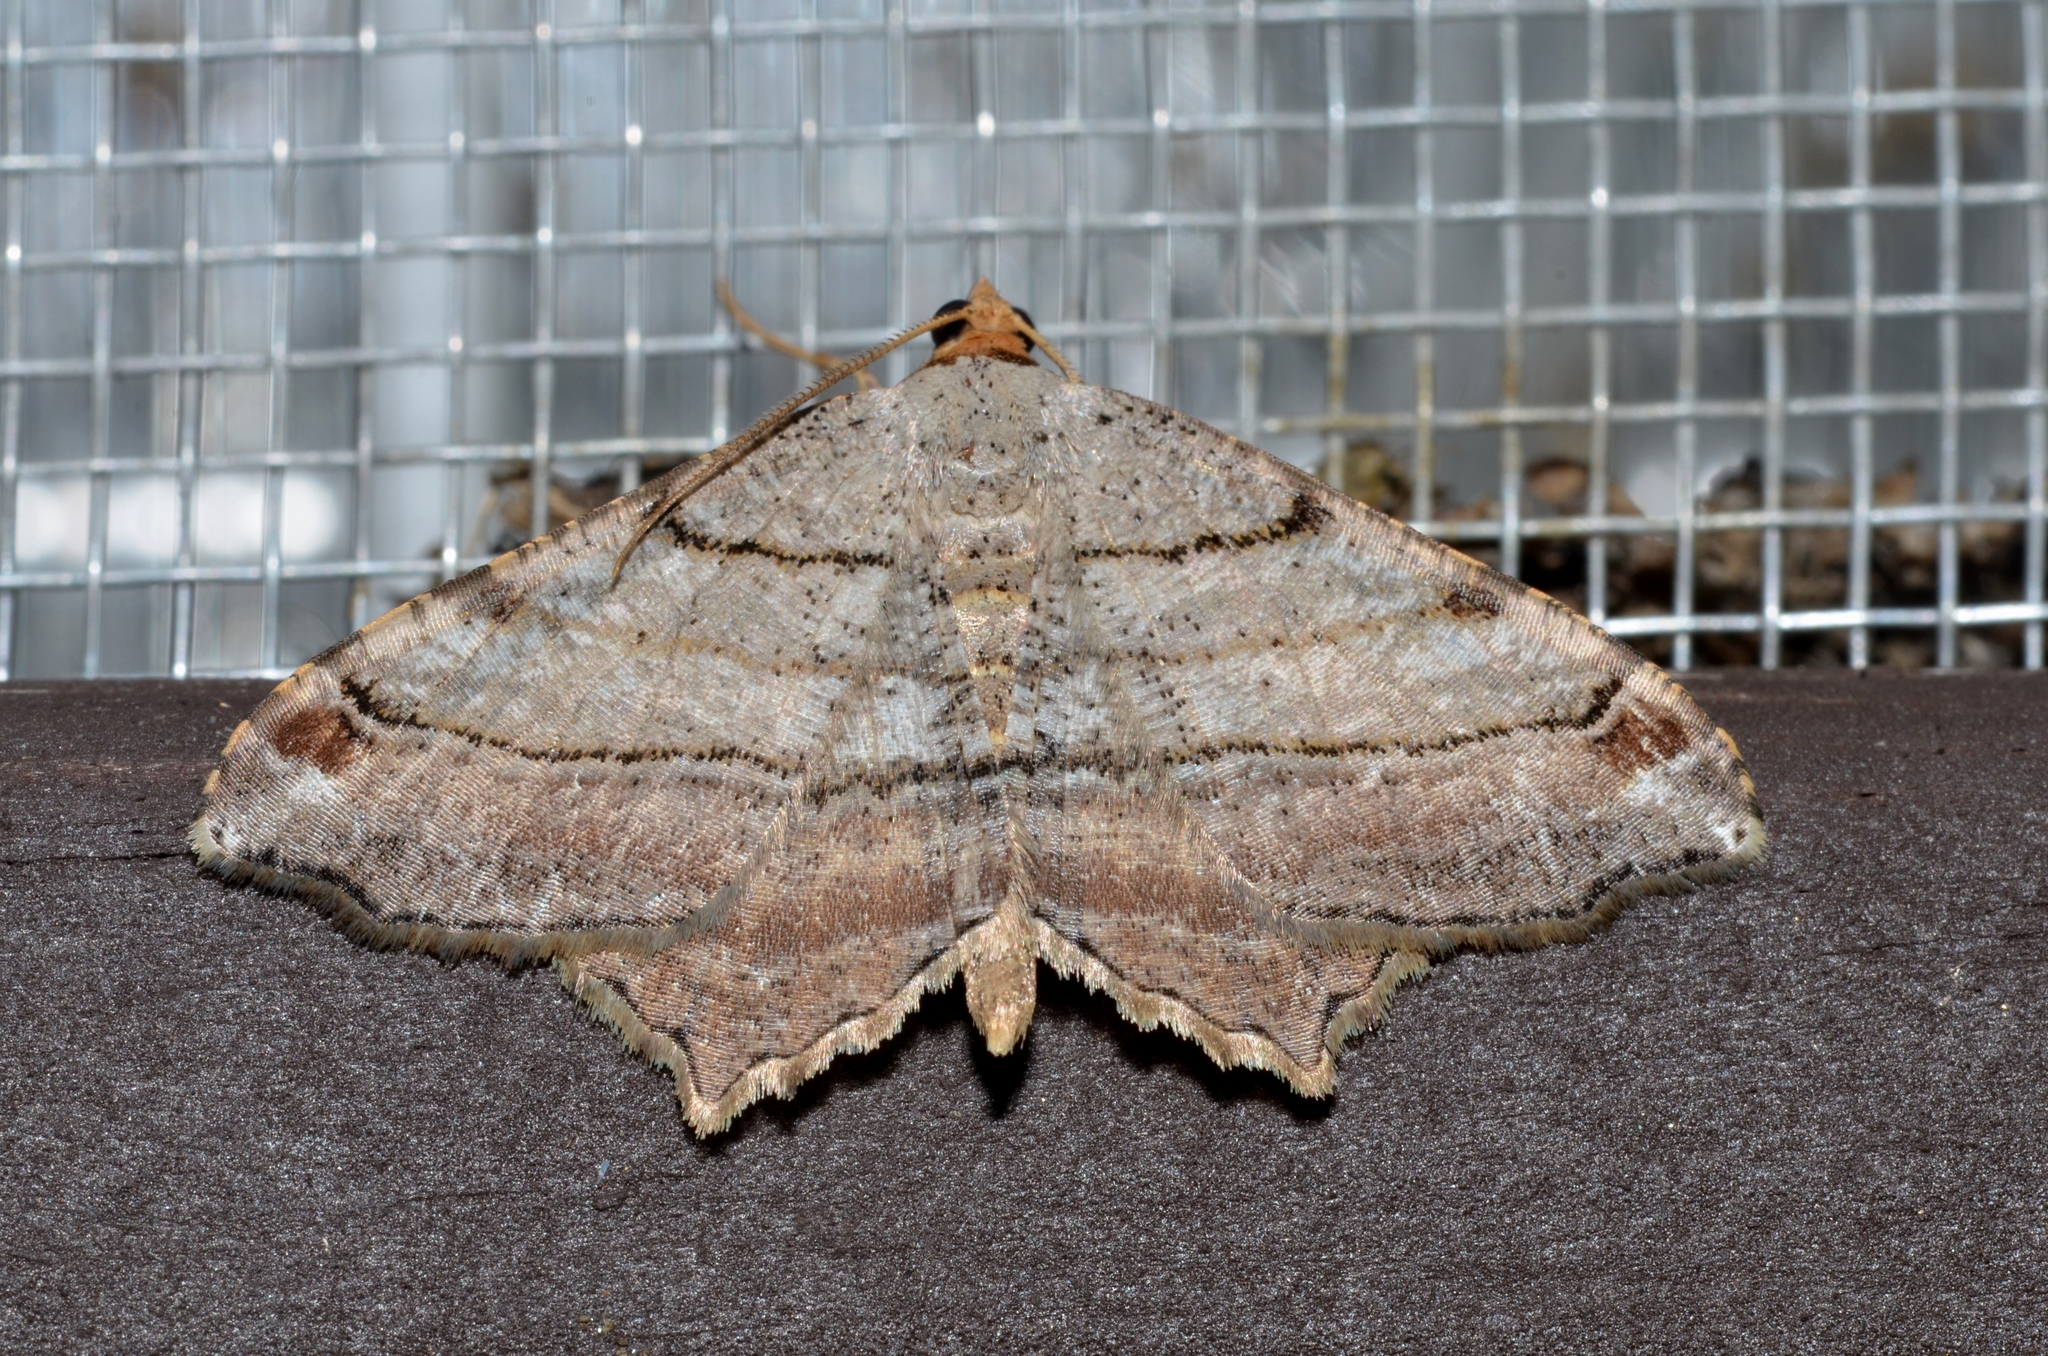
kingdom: Animalia
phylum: Arthropoda
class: Insecta
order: Lepidoptera
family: Geometridae
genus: Macaria
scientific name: Macaria multilineata
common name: Many-lined angle
